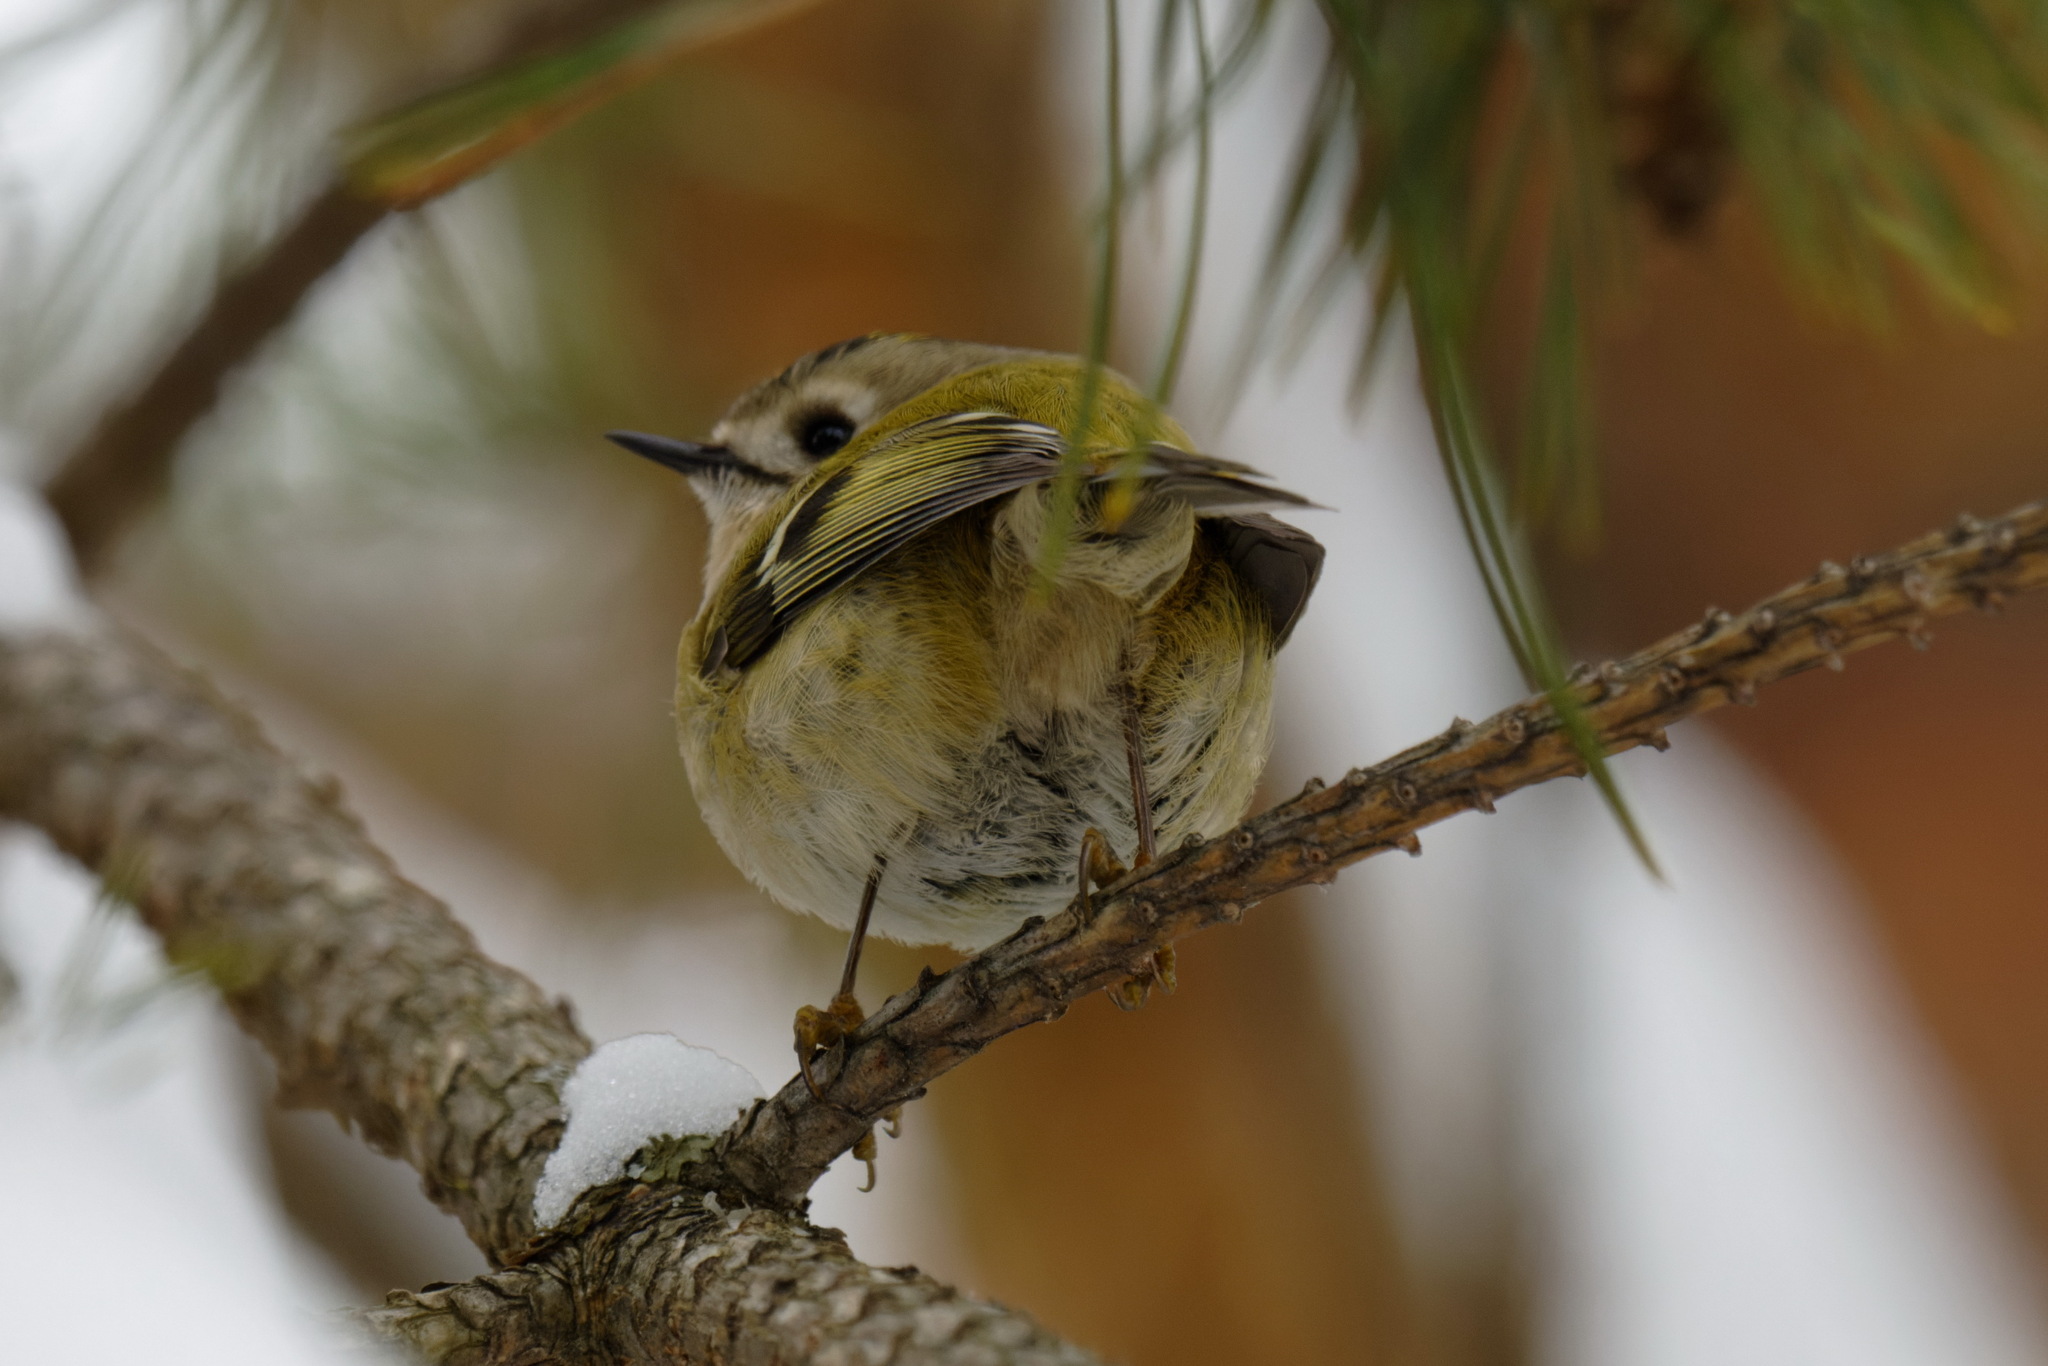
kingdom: Animalia
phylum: Chordata
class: Aves
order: Passeriformes
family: Regulidae
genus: Regulus
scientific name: Regulus regulus
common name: Goldcrest
